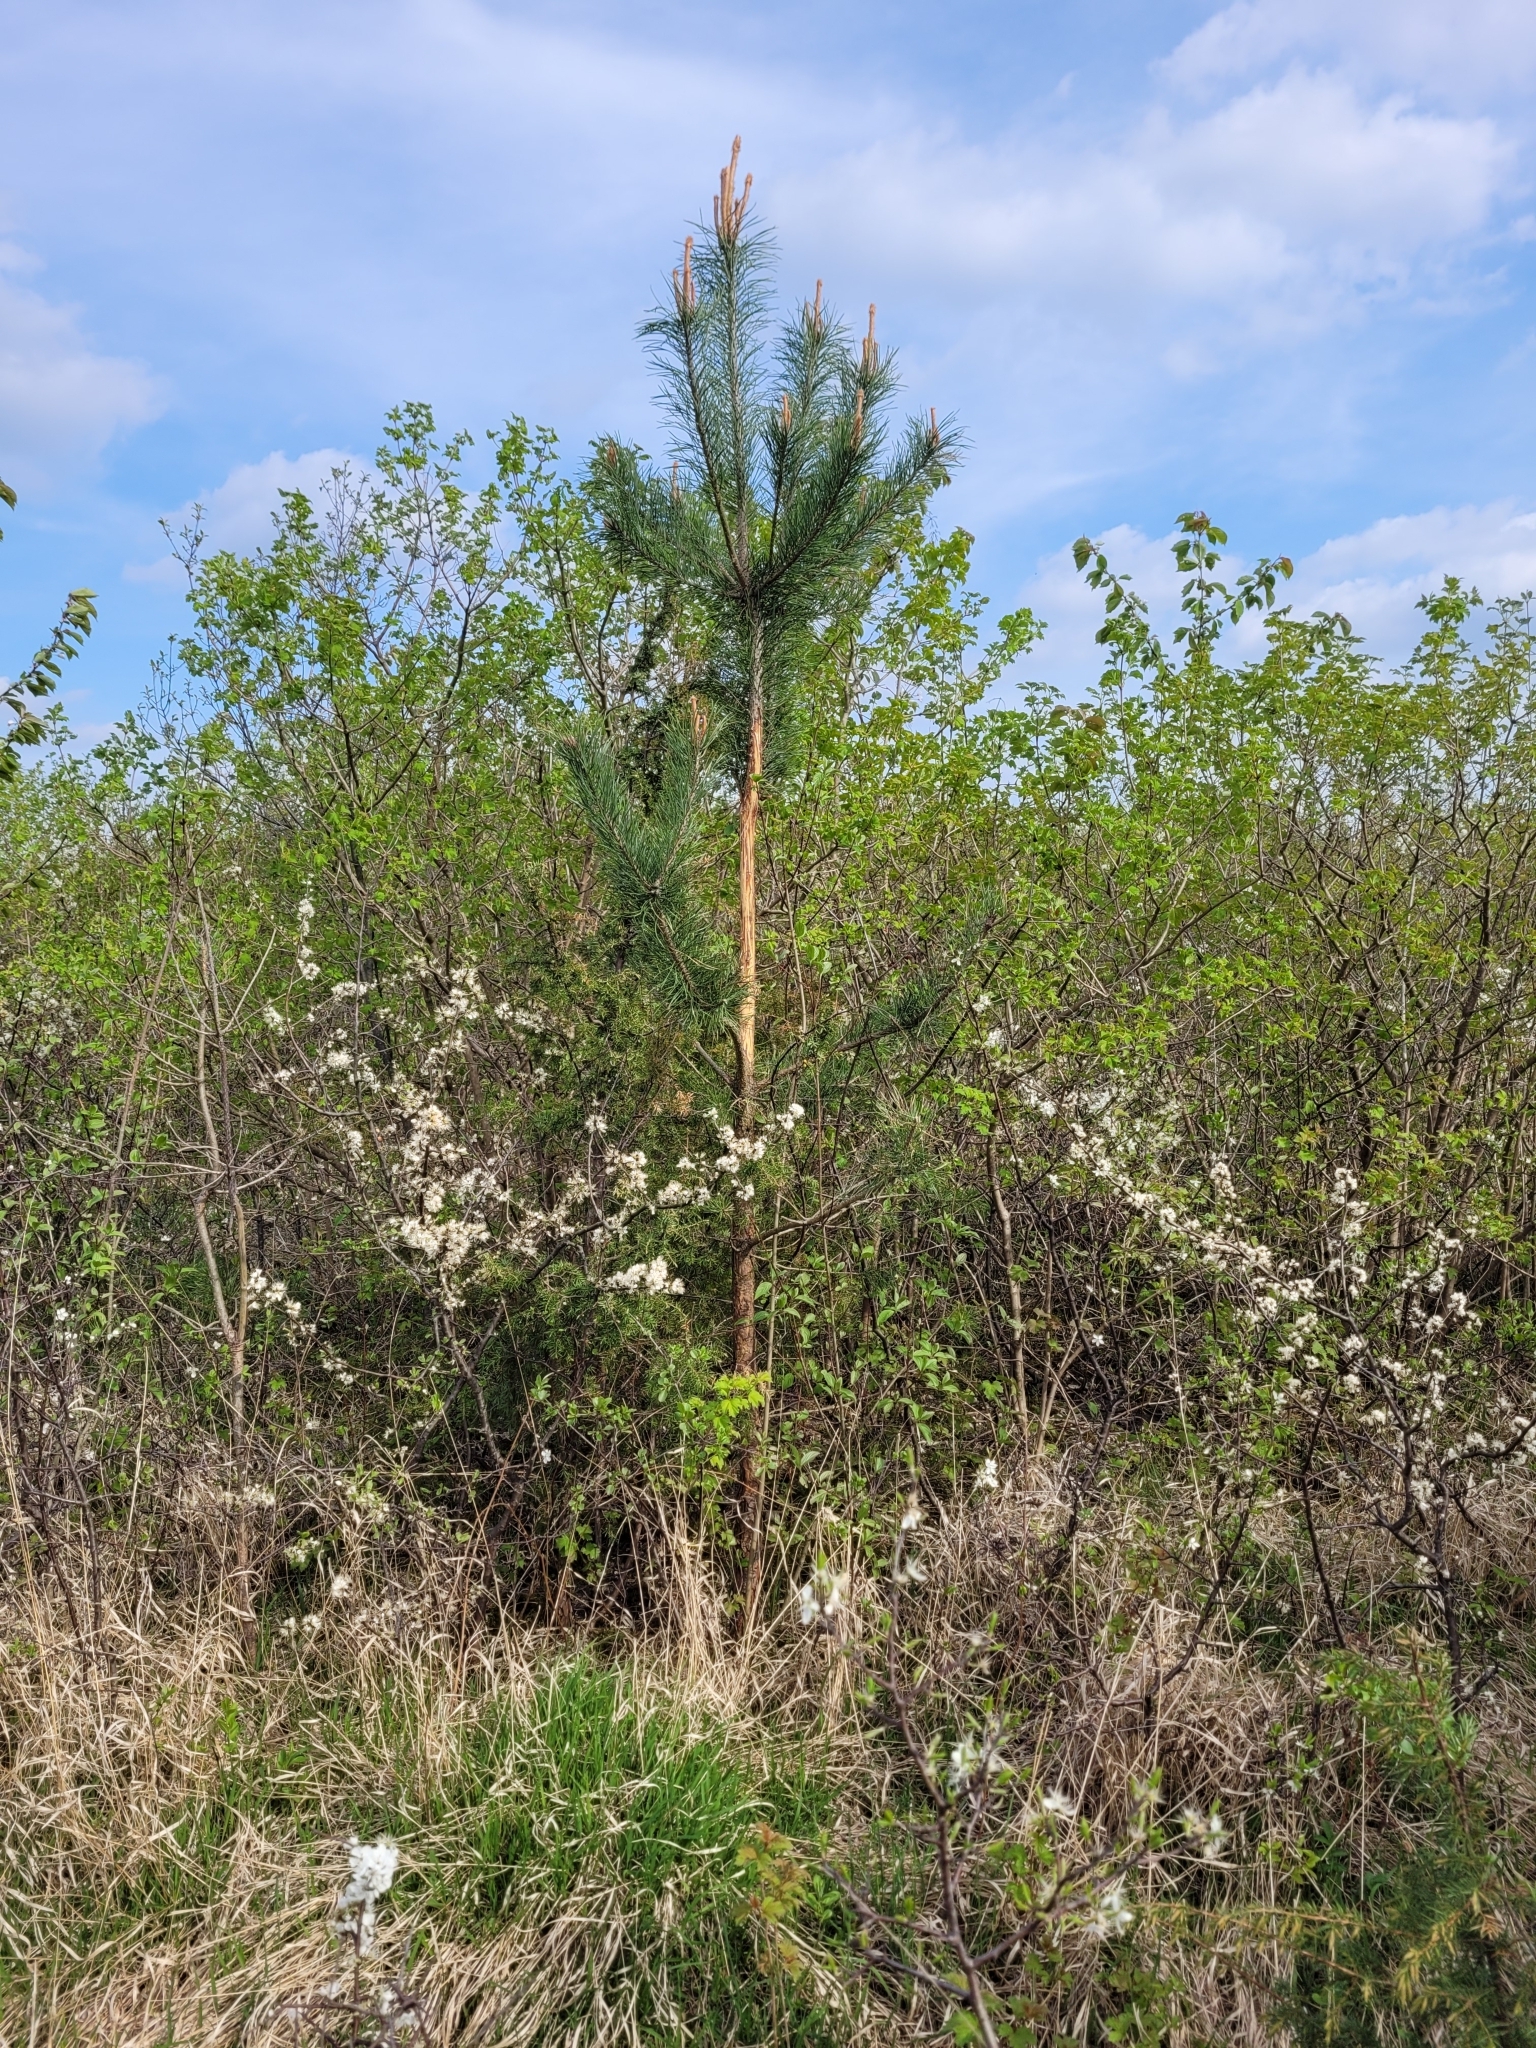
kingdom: Plantae
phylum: Tracheophyta
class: Pinopsida
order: Pinales
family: Pinaceae
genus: Pinus
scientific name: Pinus sylvestris
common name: Scots pine
